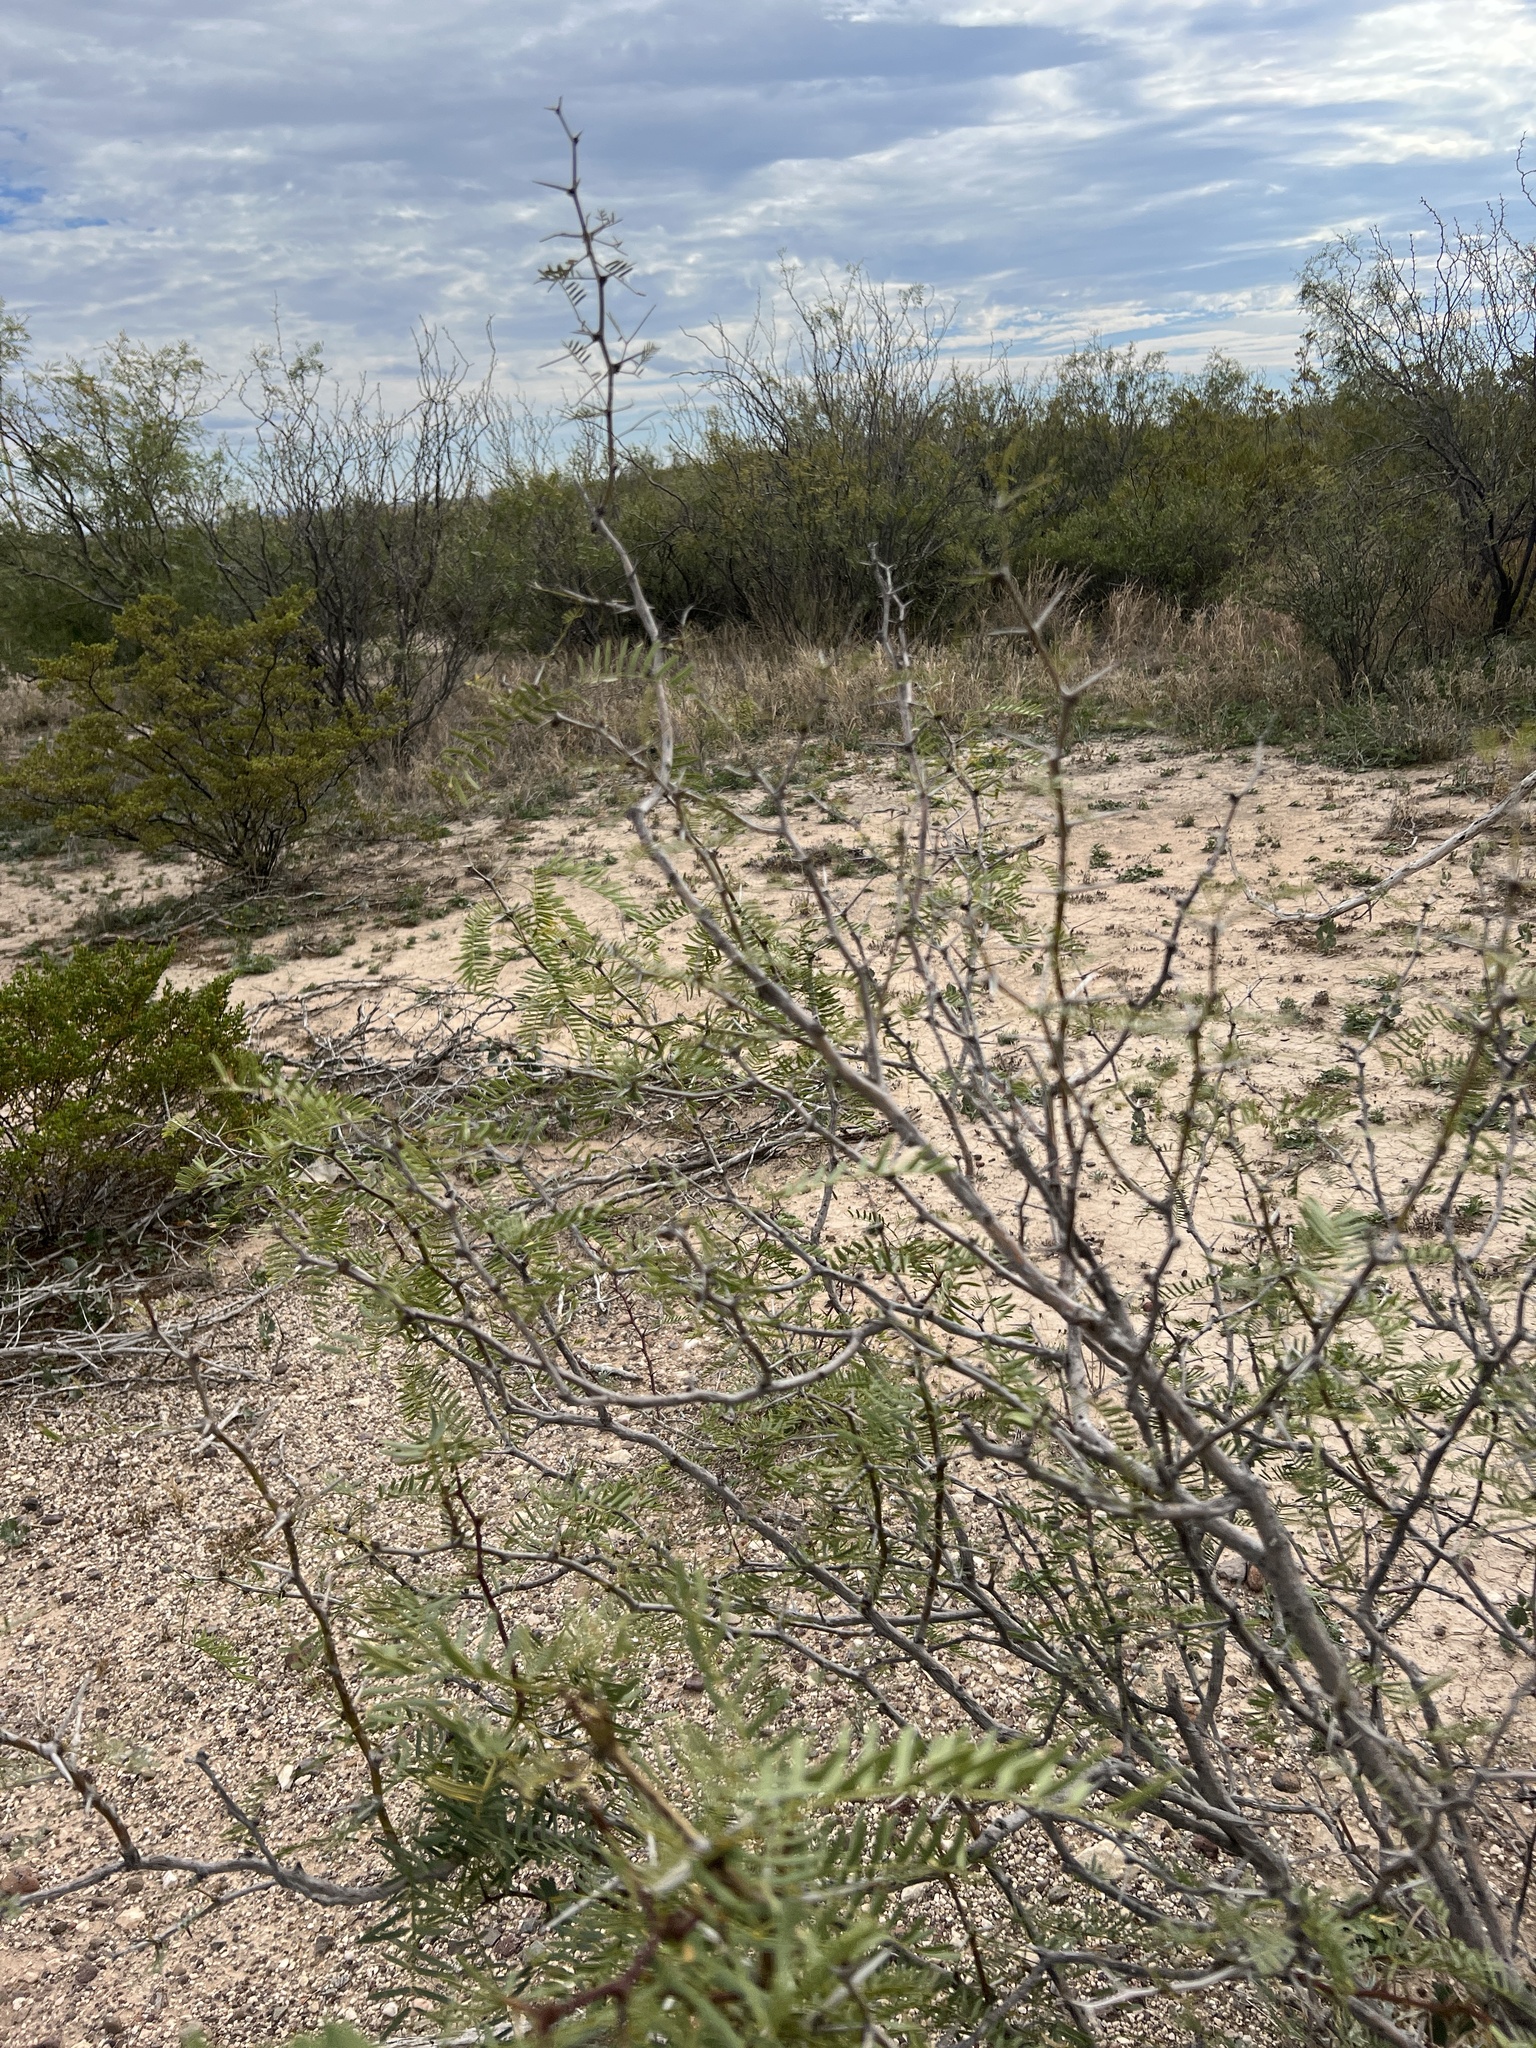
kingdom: Plantae
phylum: Tracheophyta
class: Magnoliopsida
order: Fabales
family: Fabaceae
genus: Prosopis
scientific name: Prosopis glandulosa
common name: Honey mesquite
